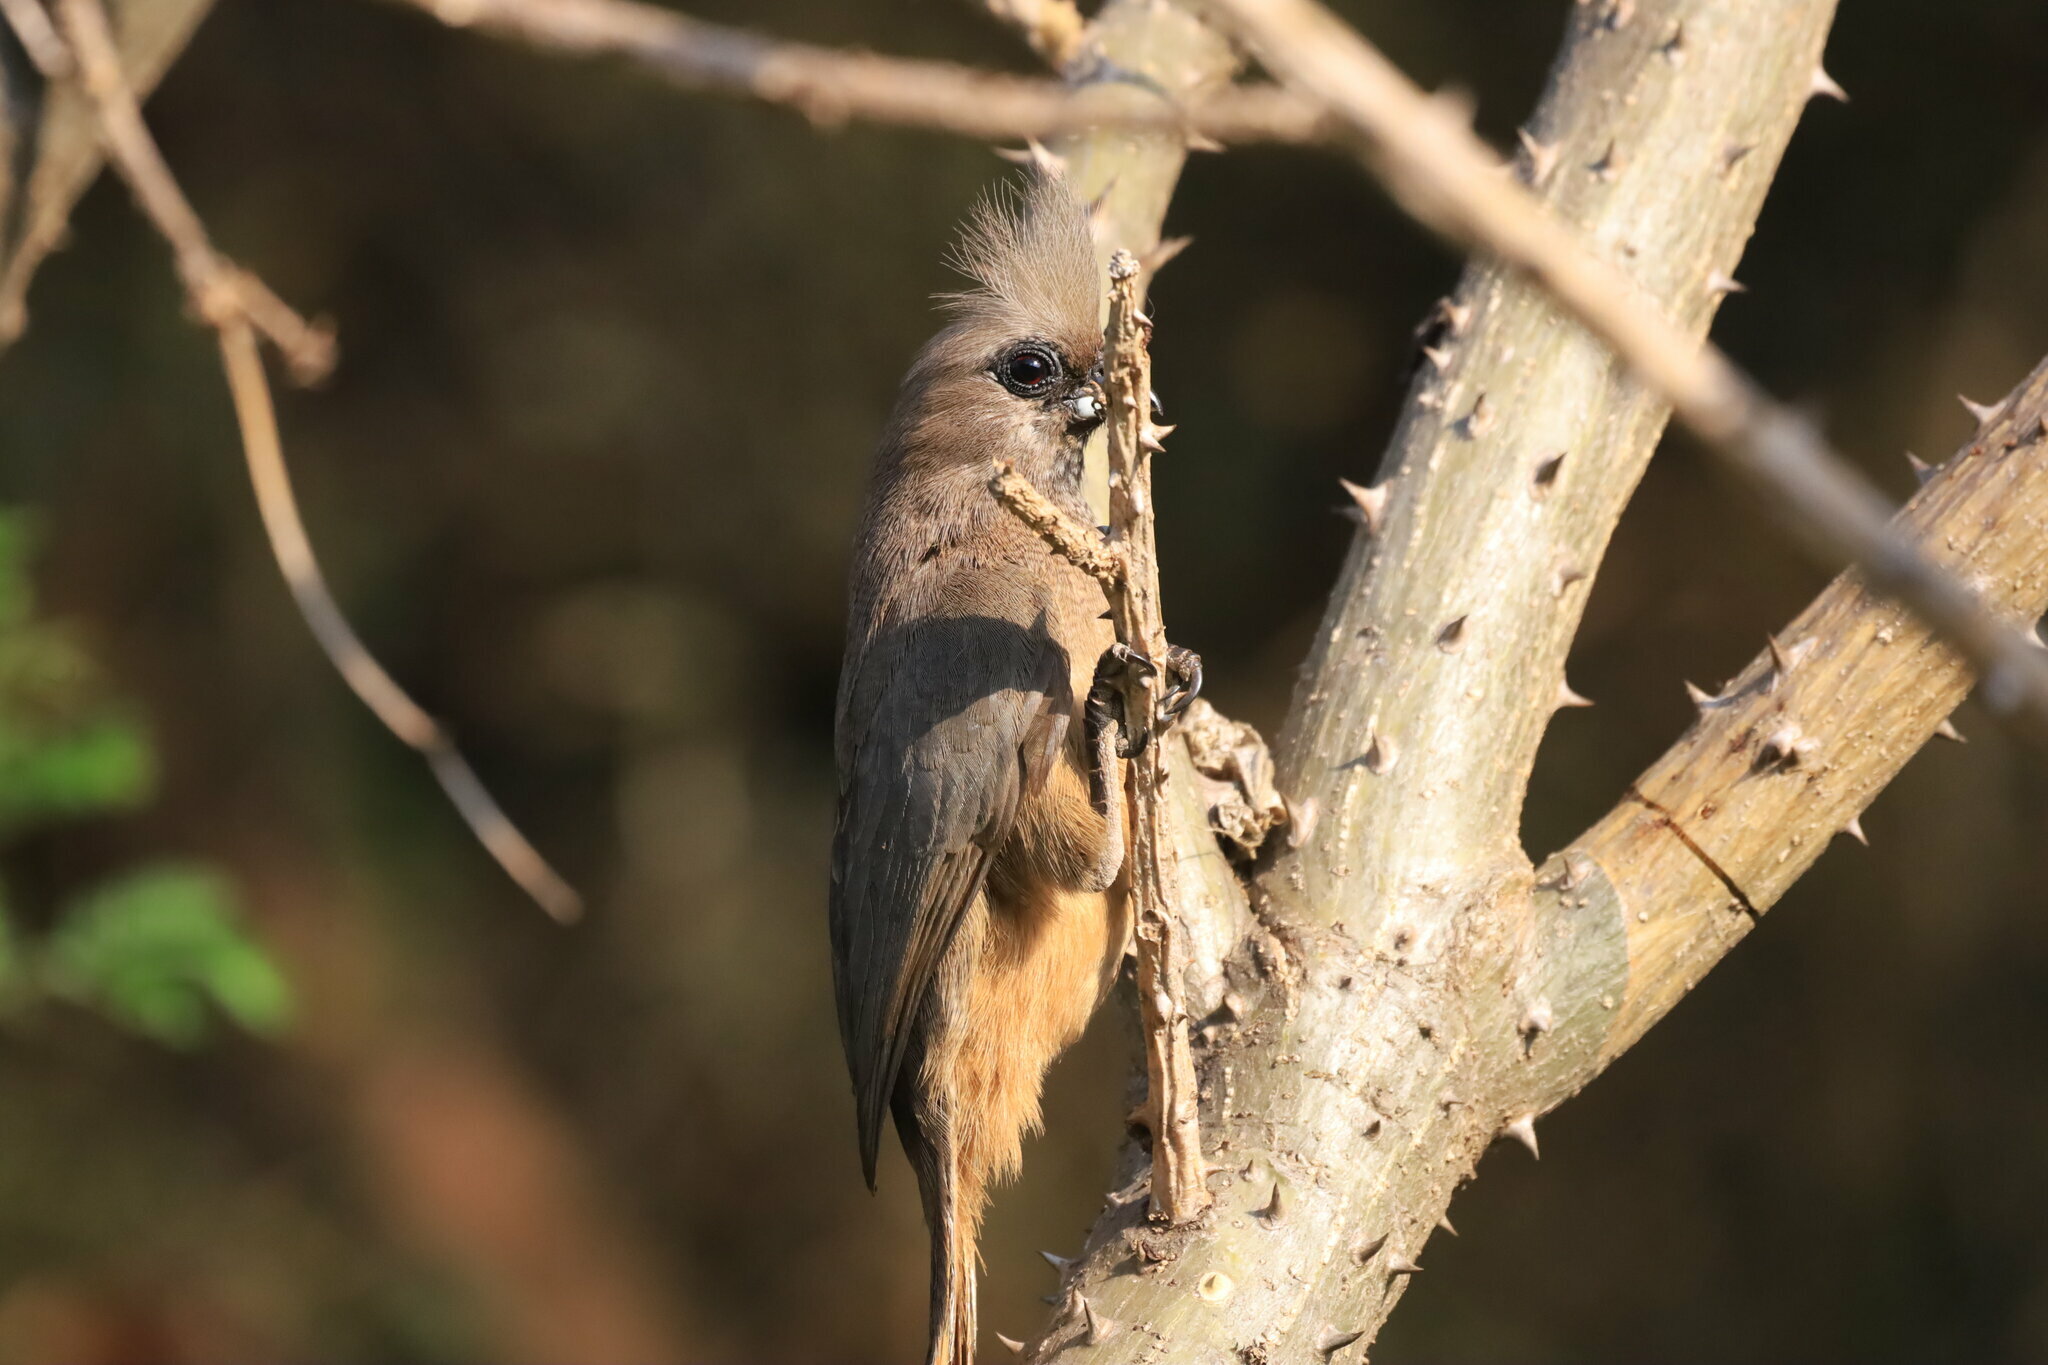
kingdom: Animalia
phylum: Chordata
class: Aves
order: Coliiformes
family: Coliidae
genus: Colius
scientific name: Colius striatus
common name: Speckled mousebird
